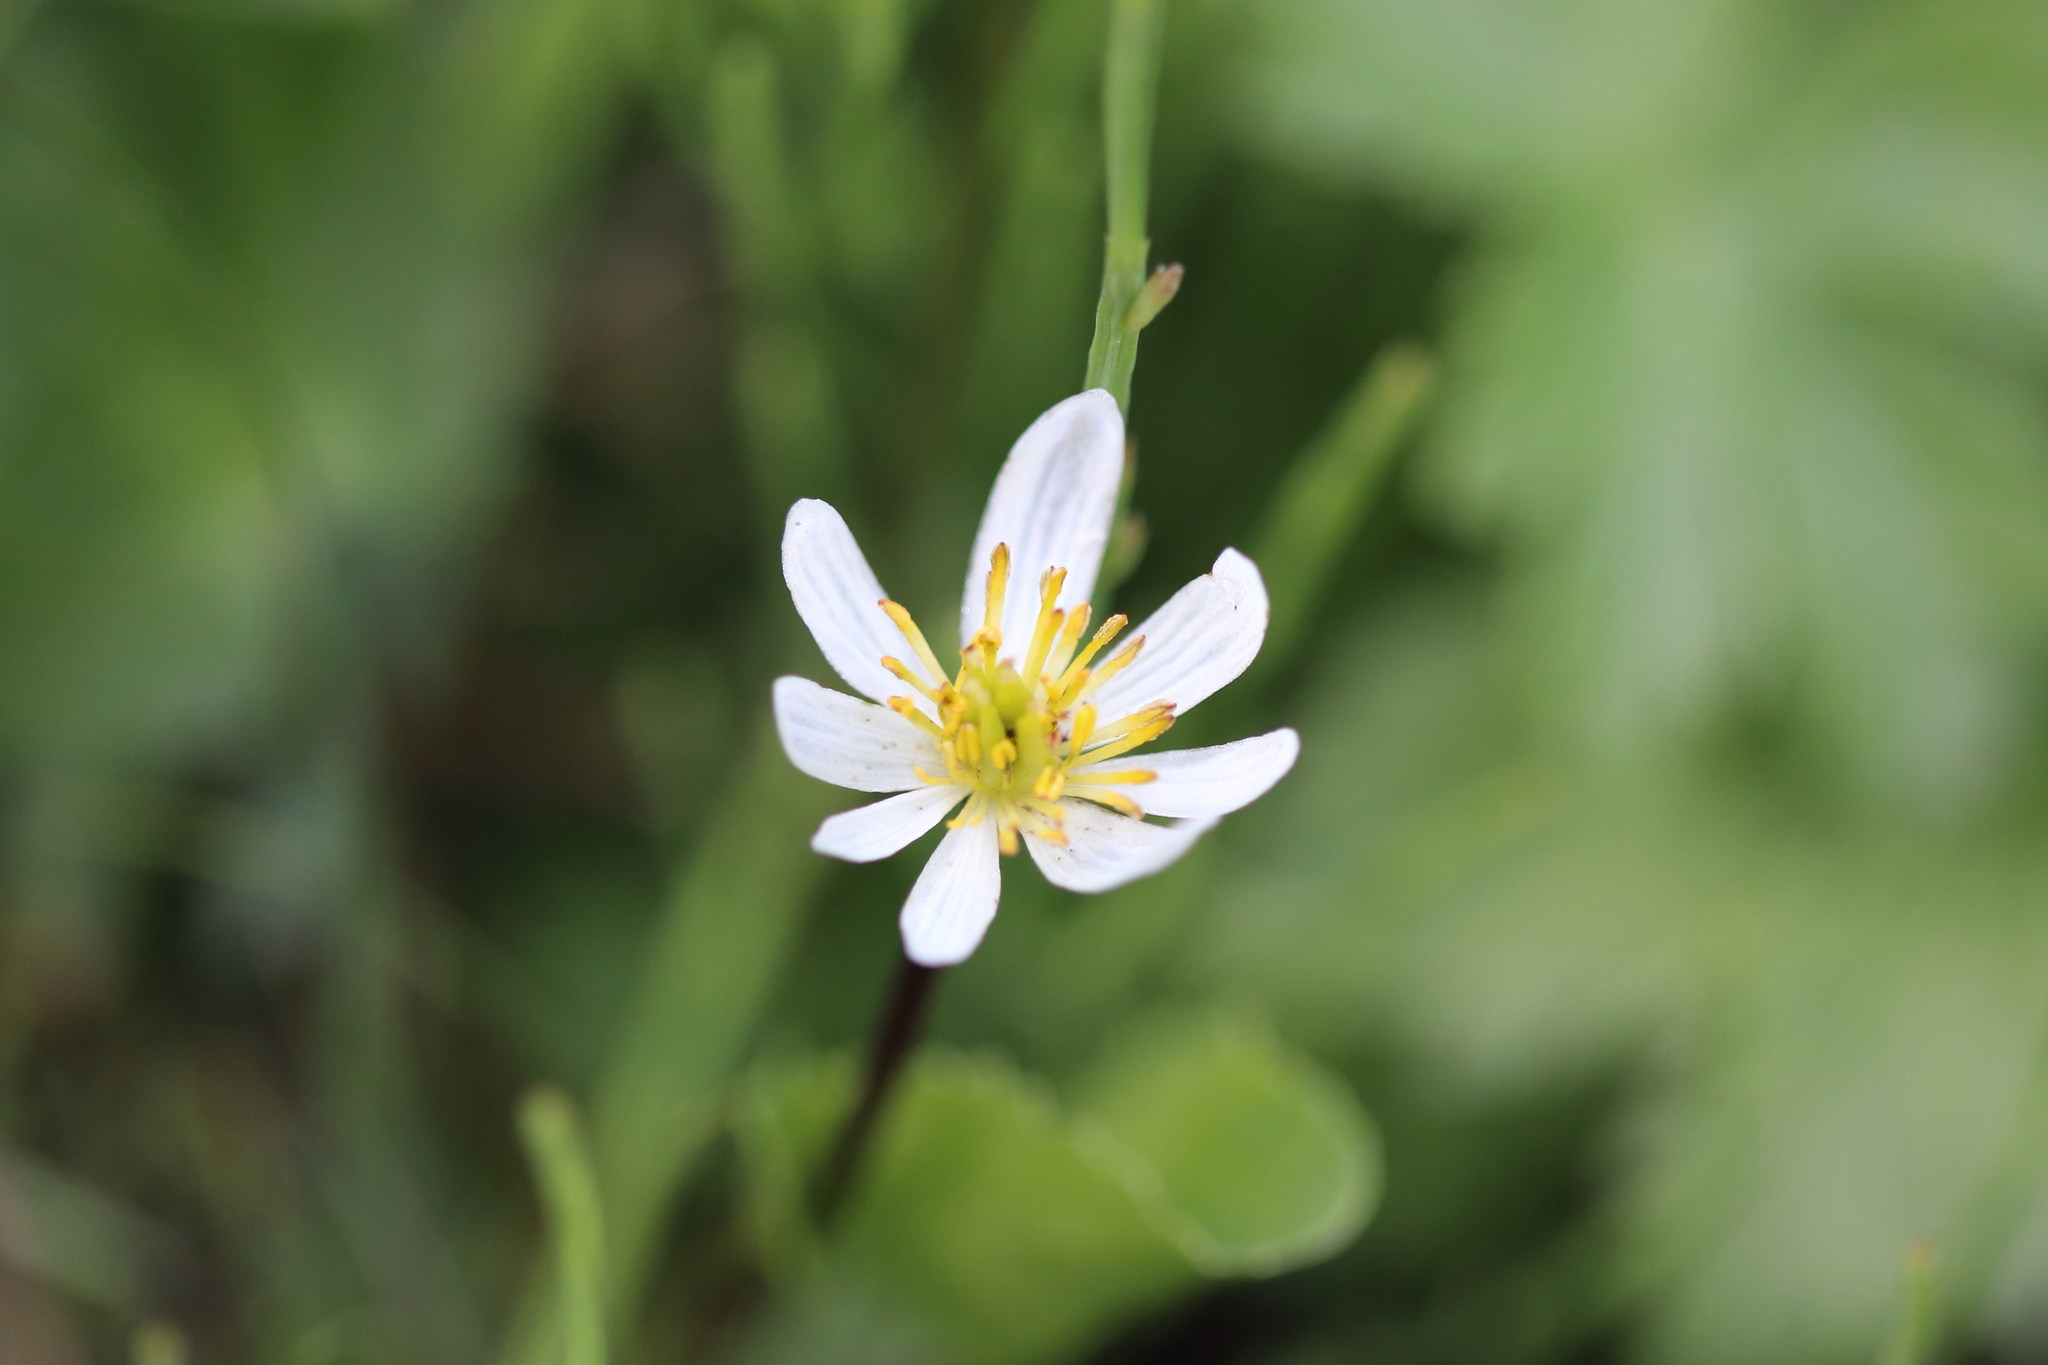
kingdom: Plantae
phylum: Tracheophyta
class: Magnoliopsida
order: Ranunculales
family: Ranunculaceae
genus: Caltha
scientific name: Caltha leptosepala
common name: Elkslip
